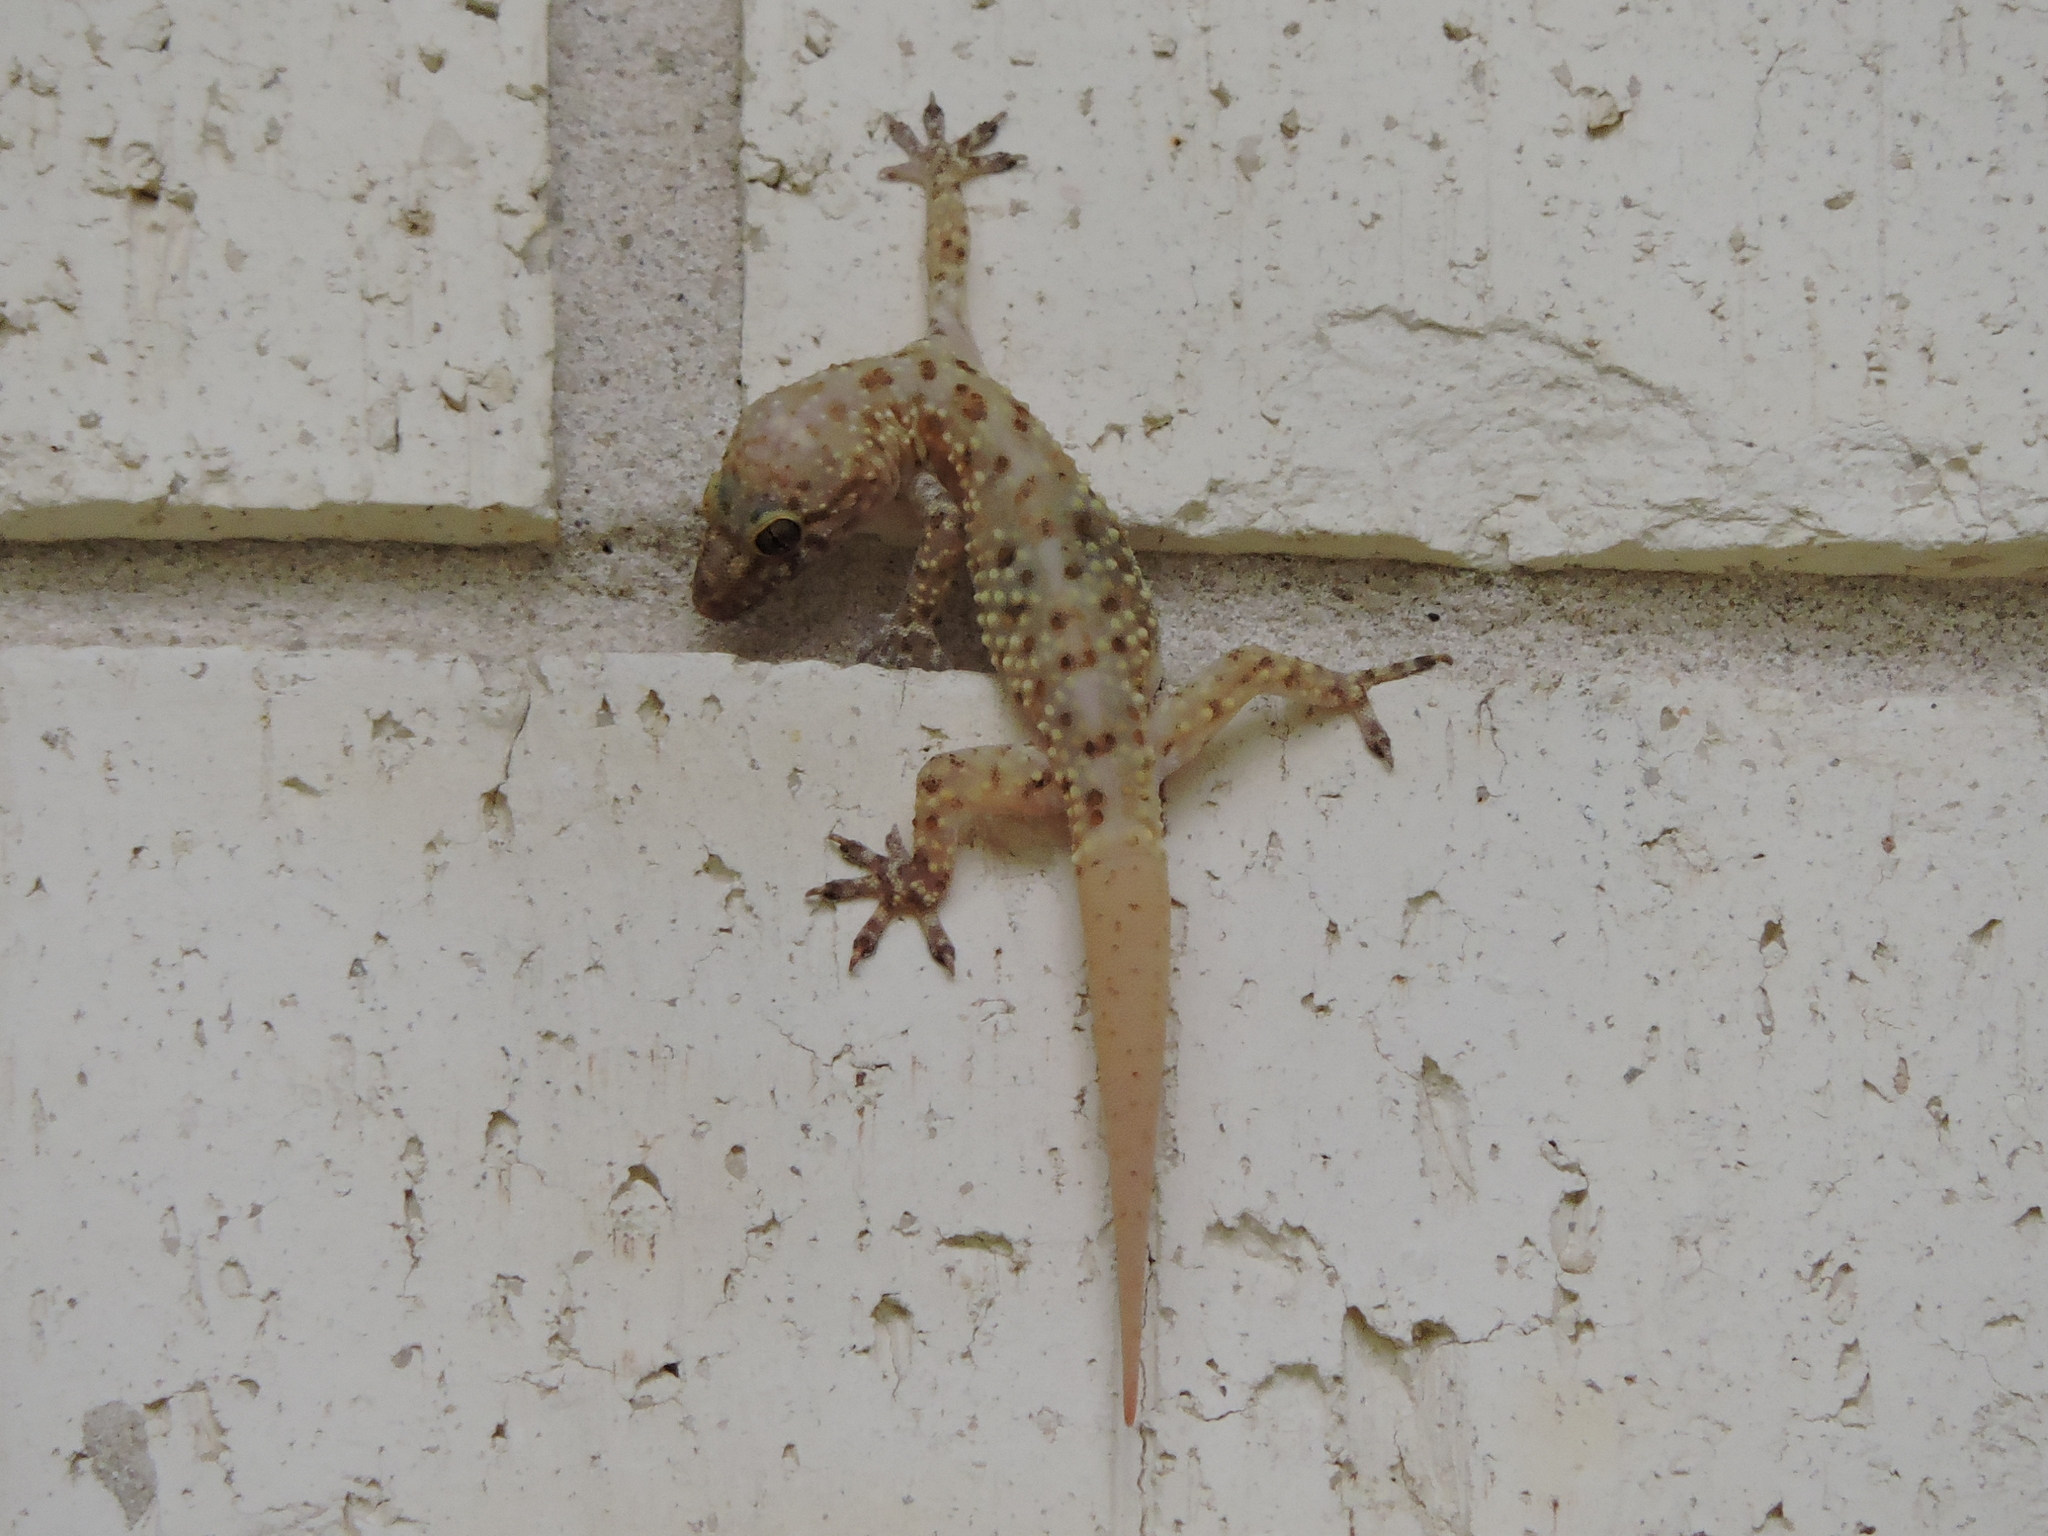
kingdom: Animalia
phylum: Chordata
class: Squamata
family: Gekkonidae
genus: Hemidactylus
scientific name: Hemidactylus turcicus
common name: Turkish gecko
